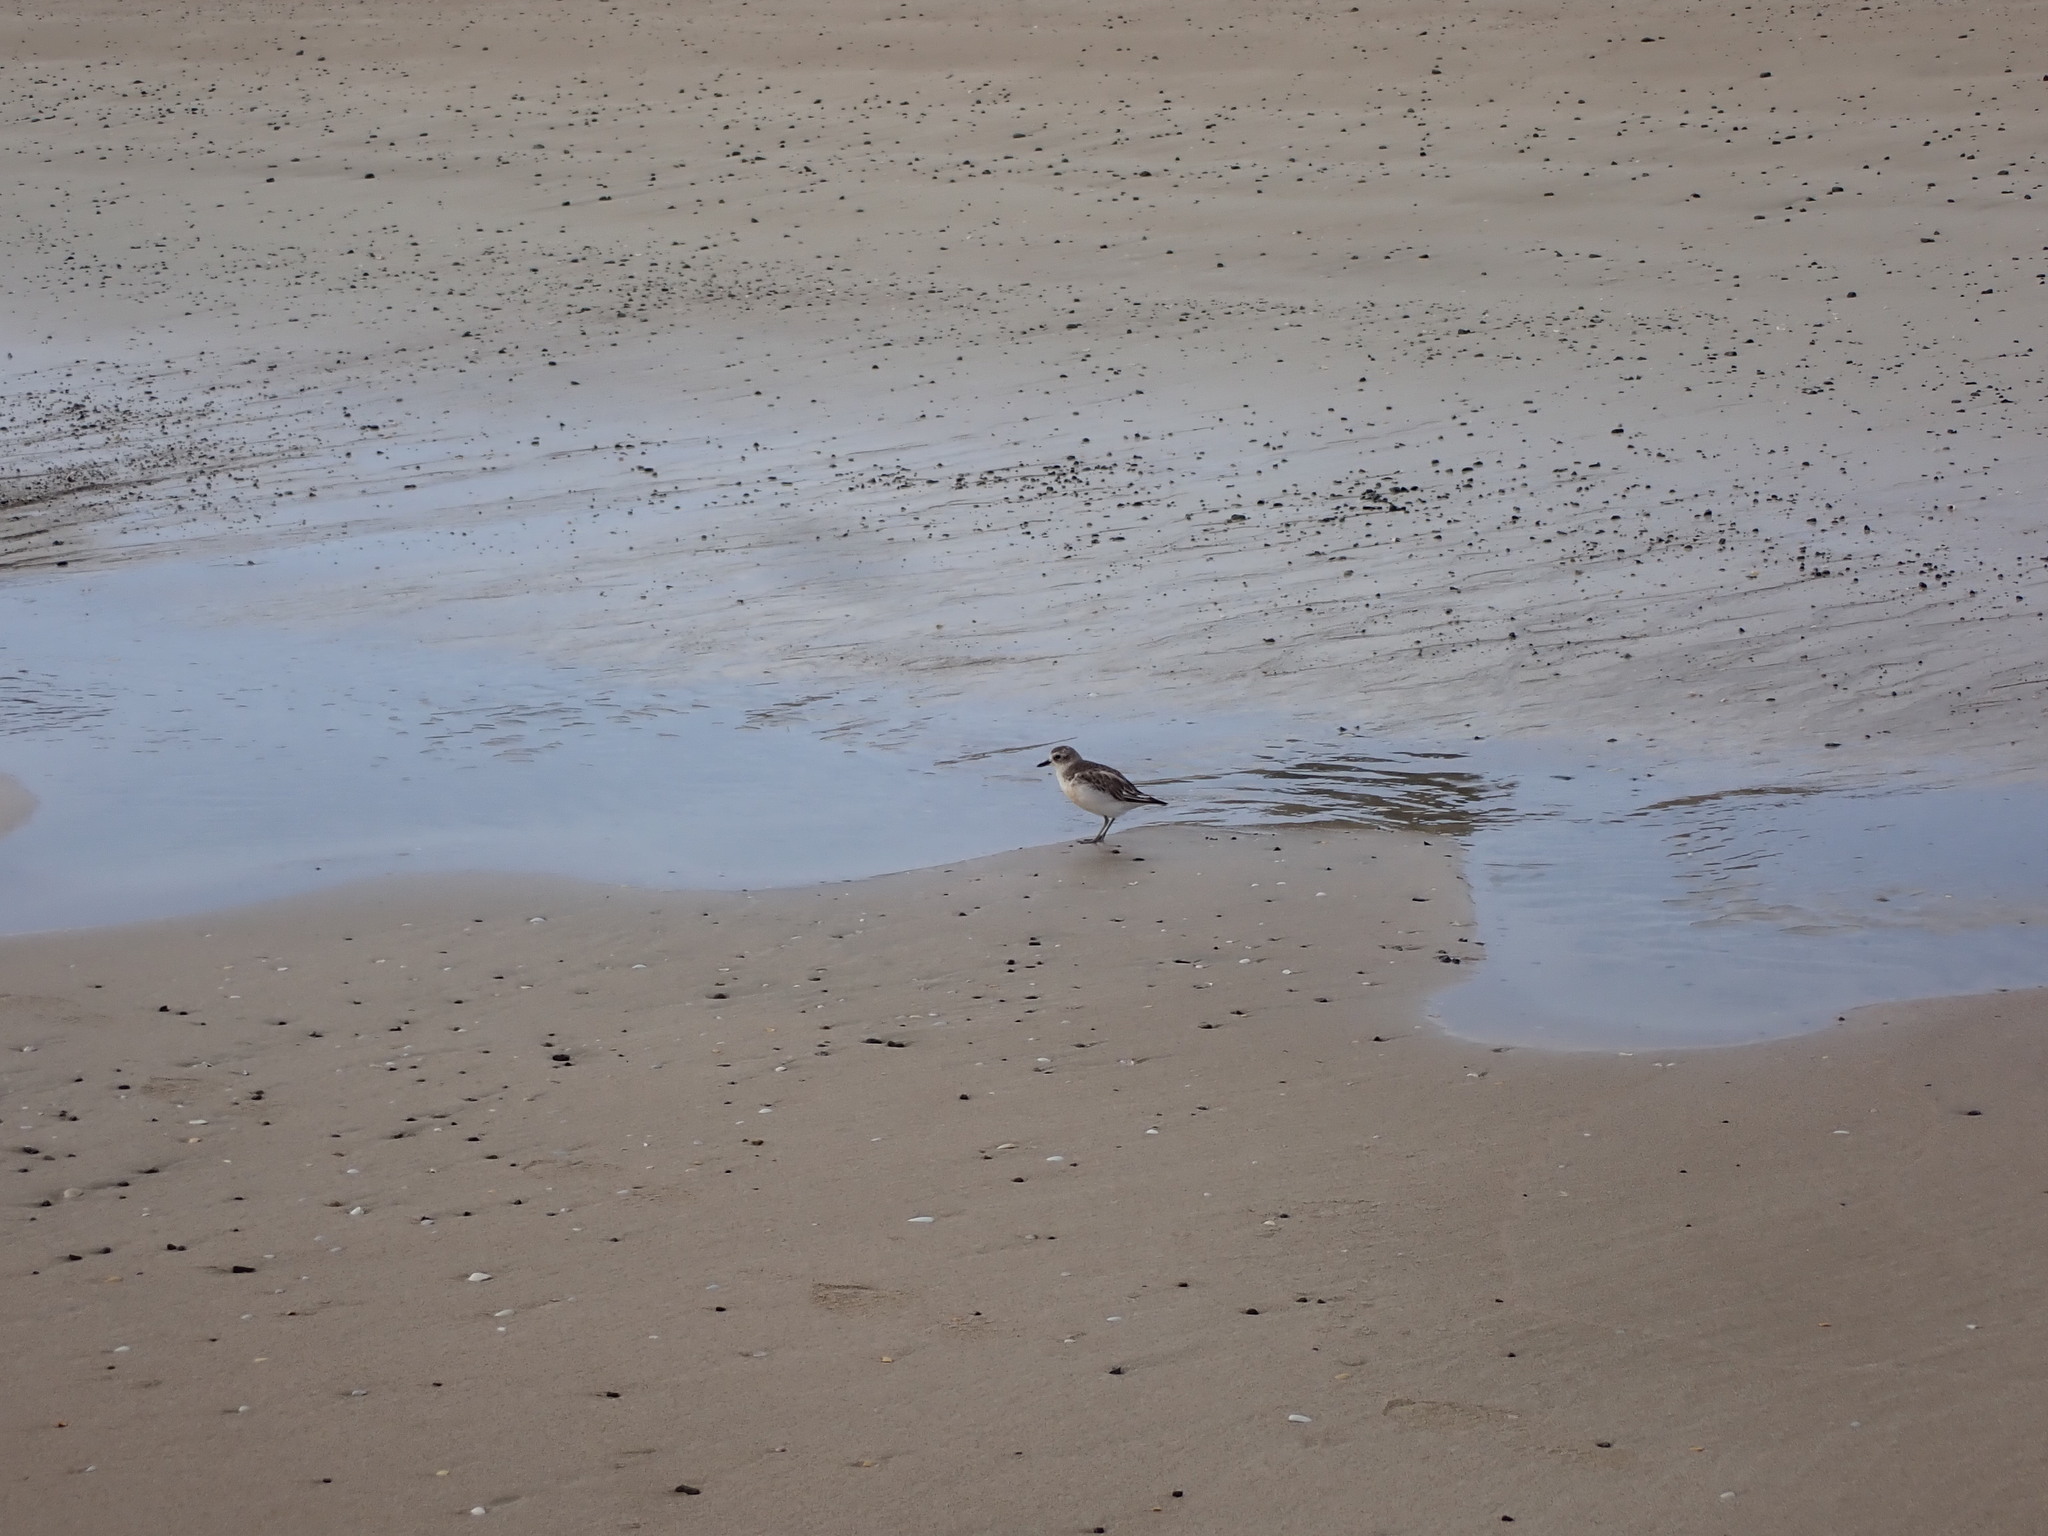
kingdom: Animalia
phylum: Chordata
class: Aves
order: Charadriiformes
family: Charadriidae
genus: Anarhynchus
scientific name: Anarhynchus
